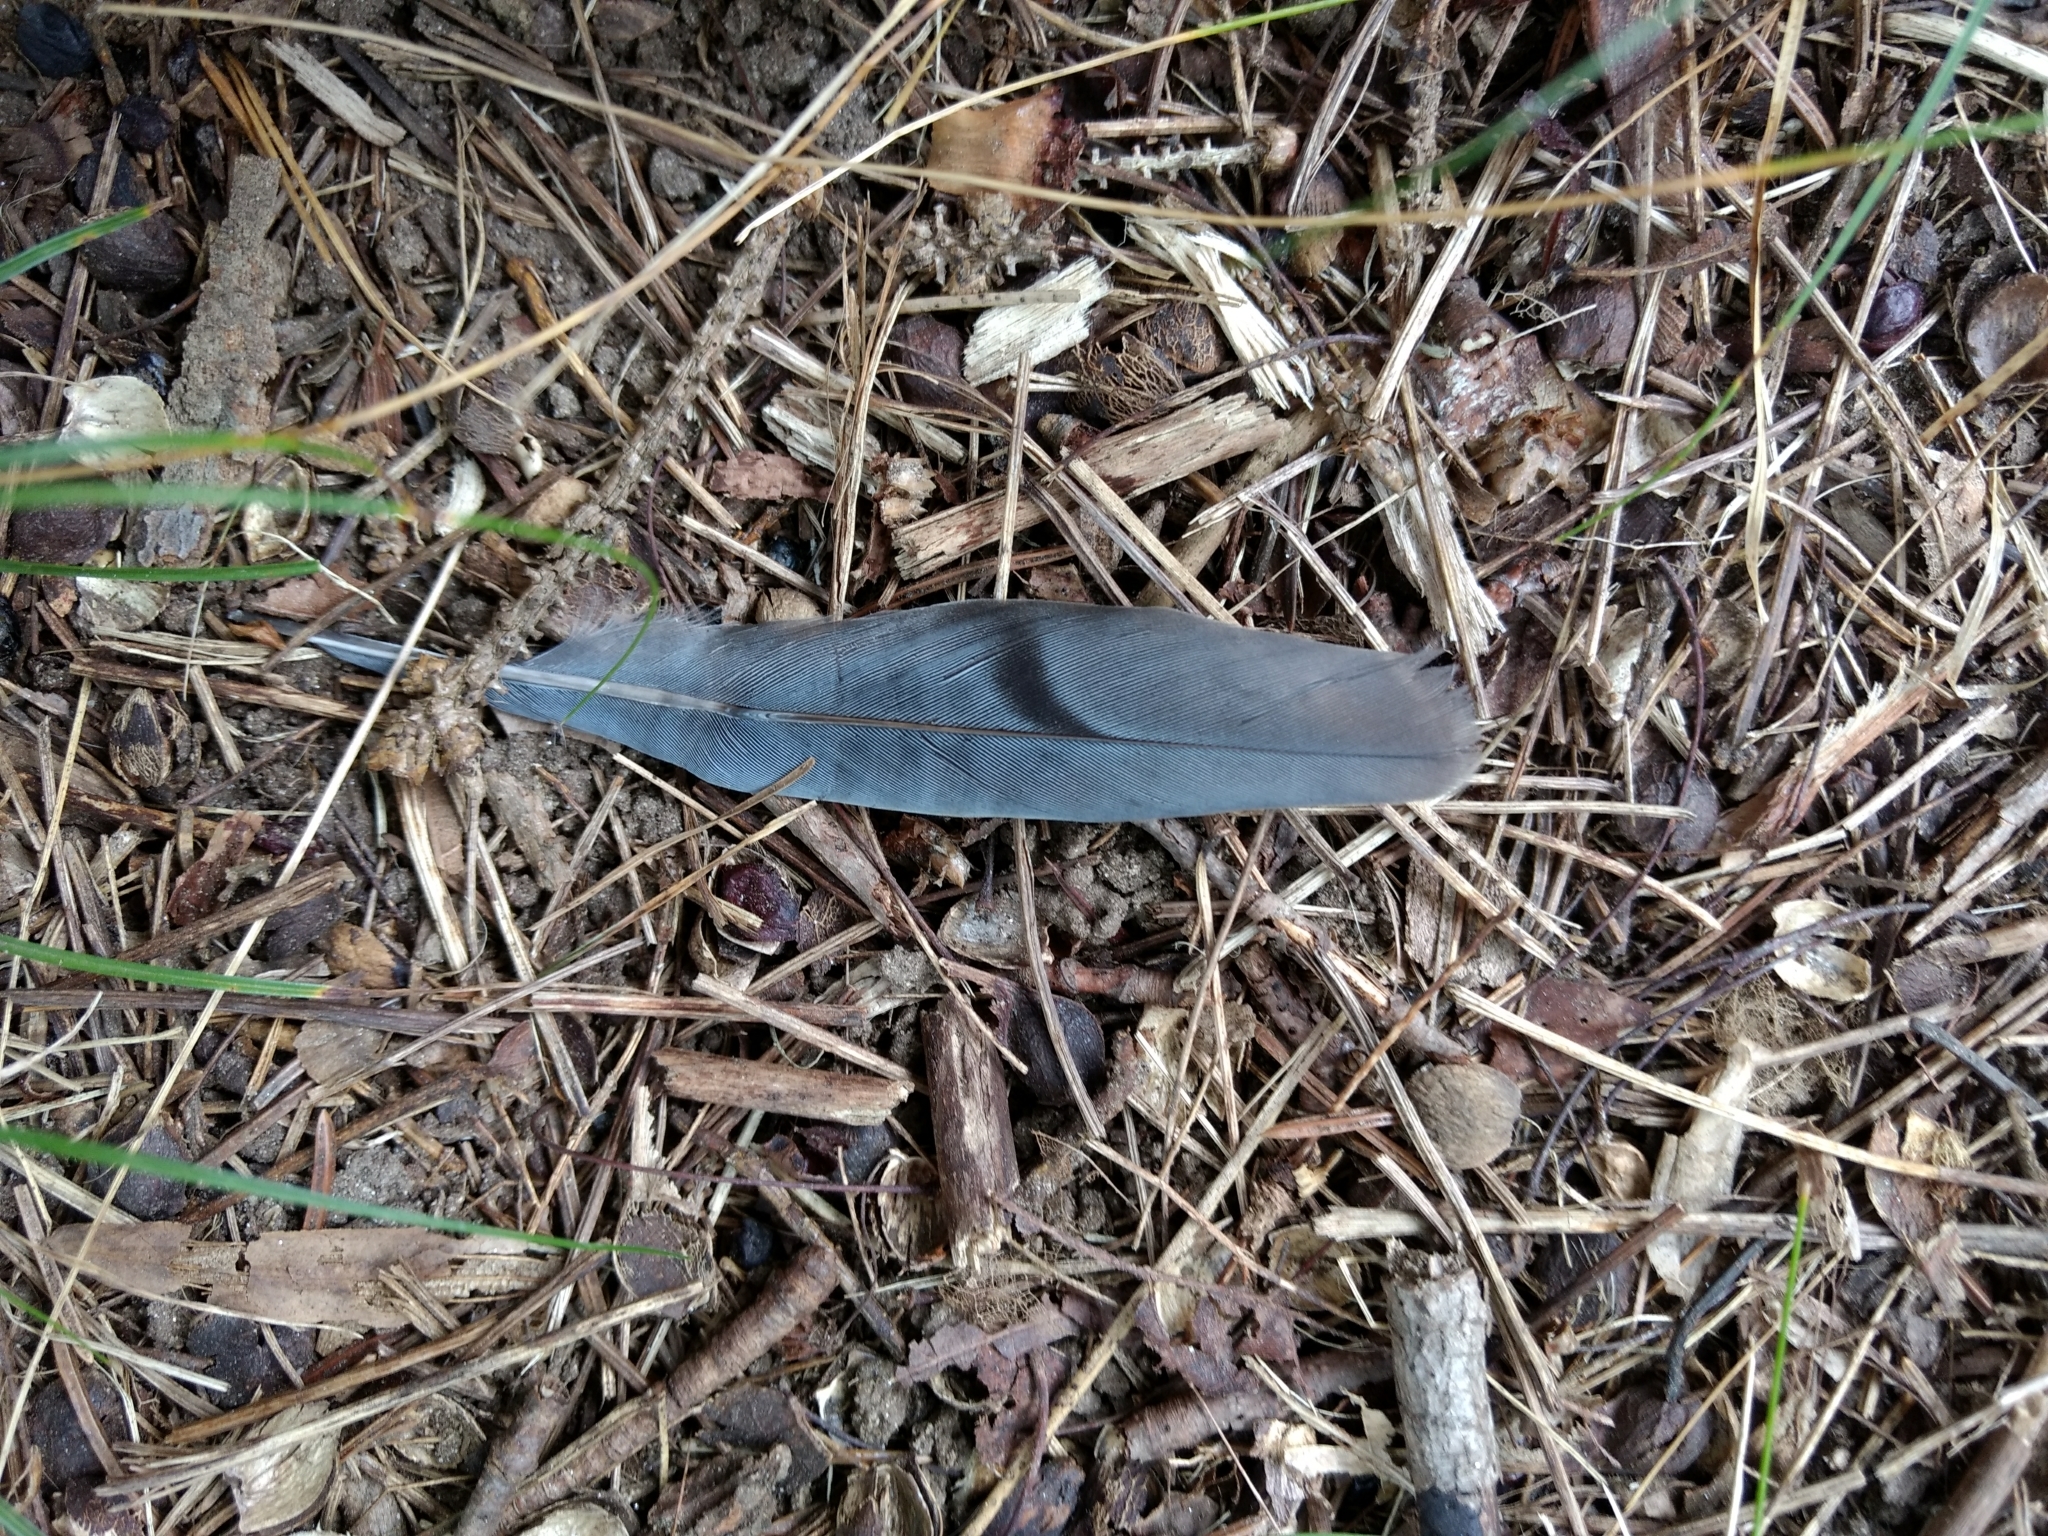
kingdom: Animalia
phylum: Chordata
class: Aves
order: Columbiformes
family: Columbidae
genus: Zenaida
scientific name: Zenaida macroura
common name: Mourning dove
